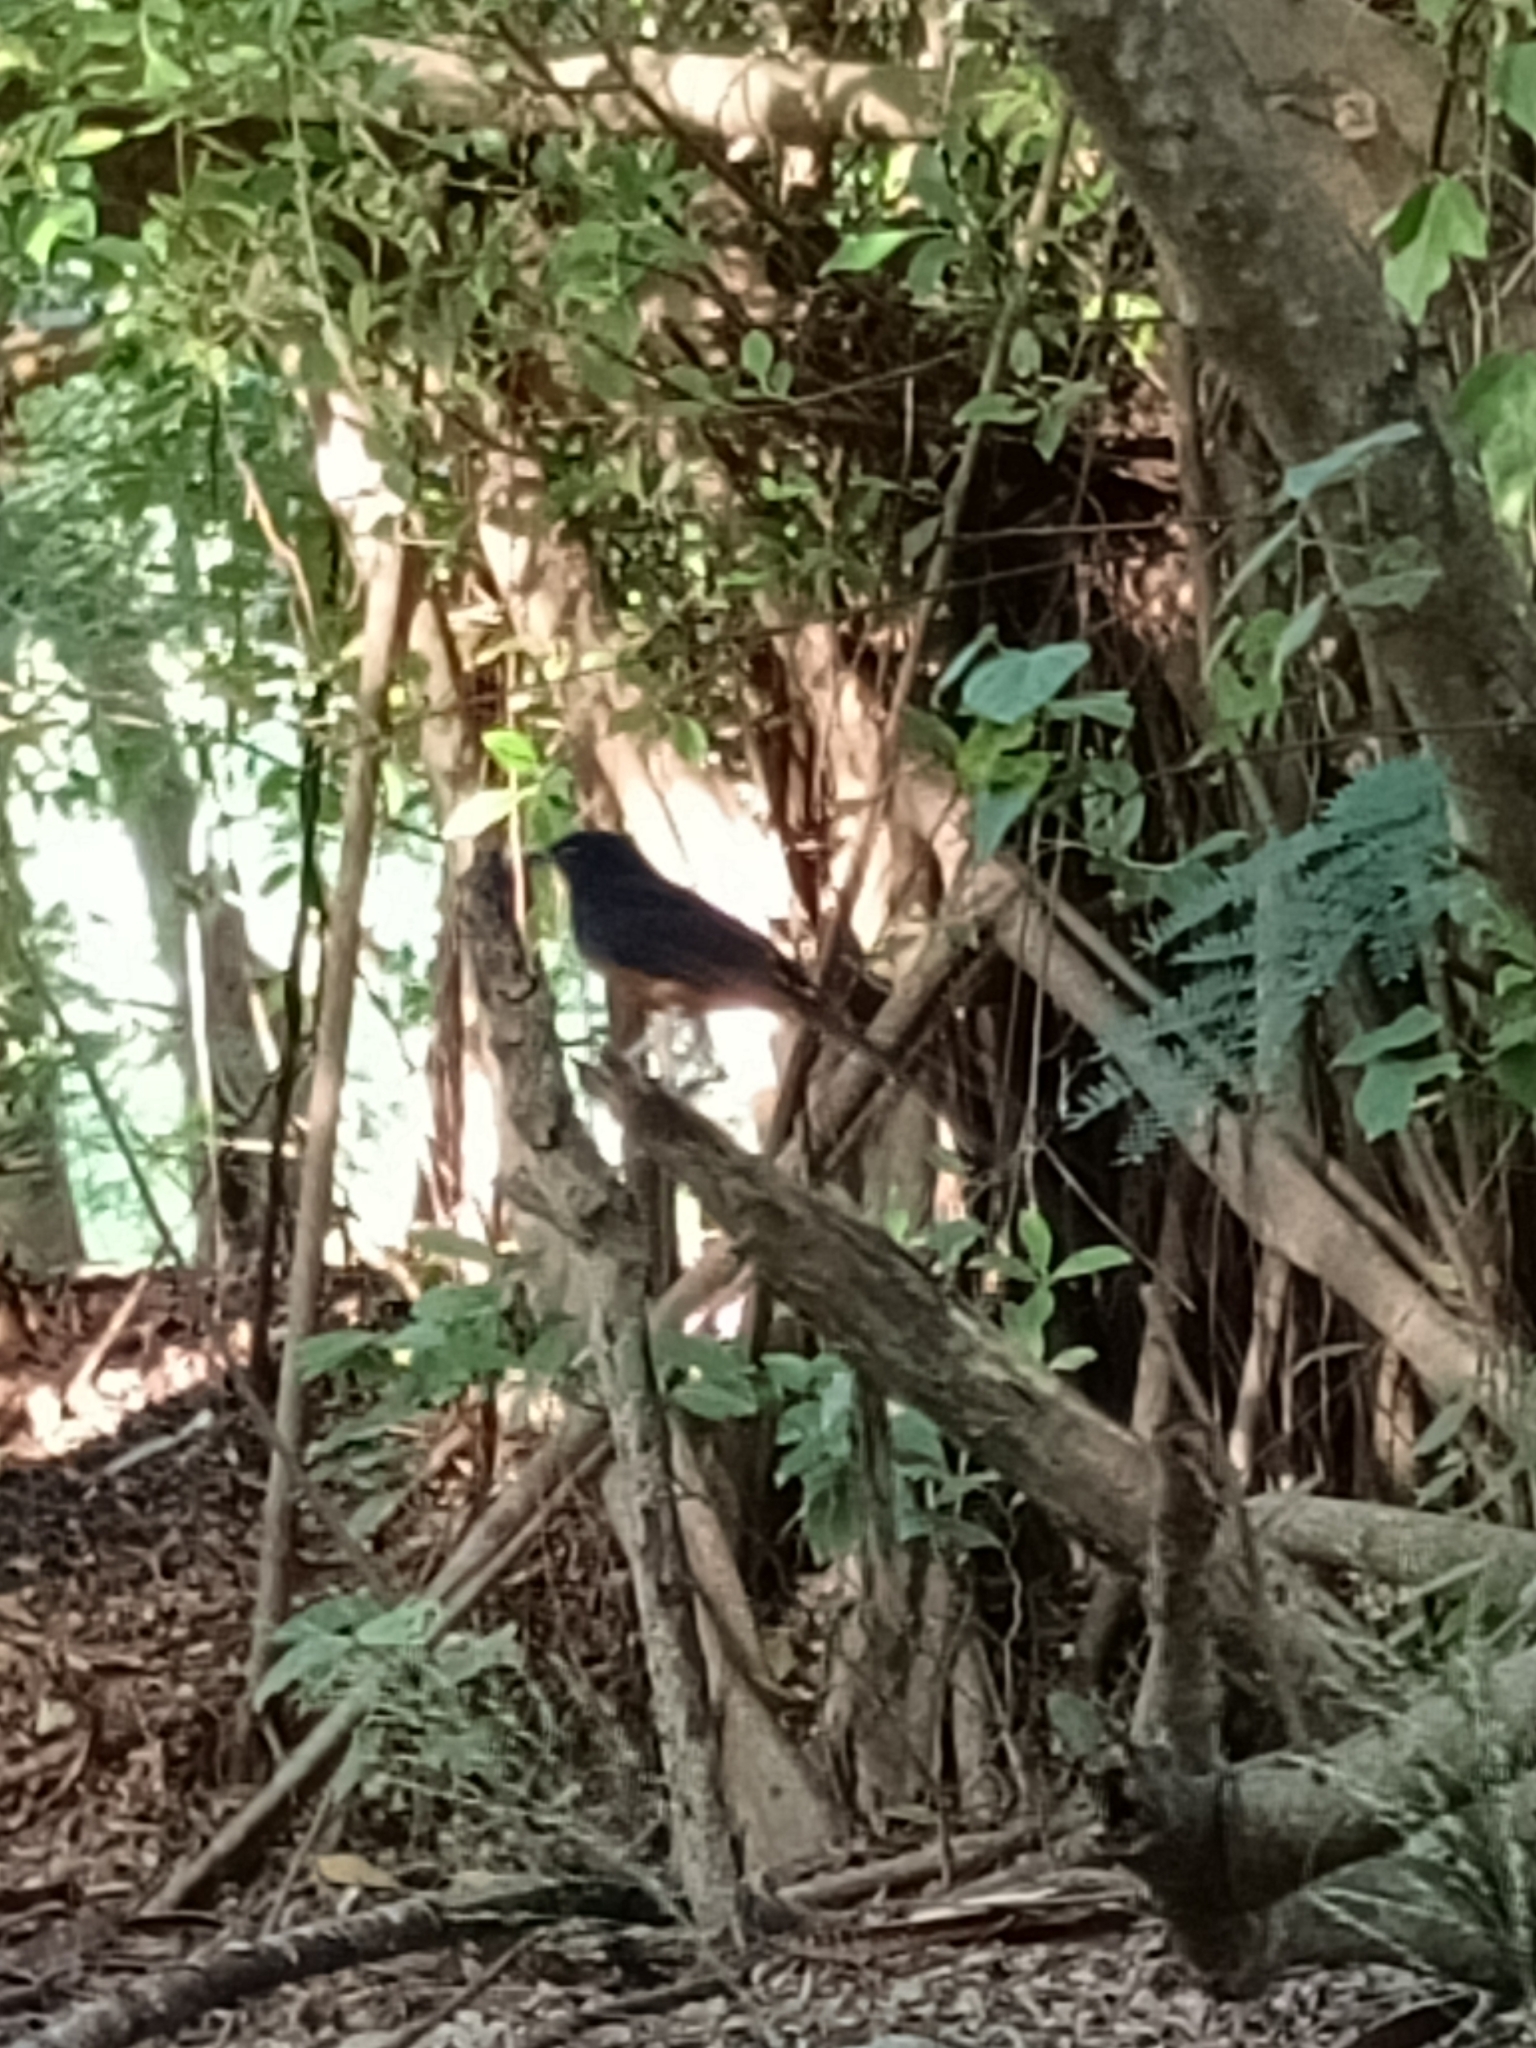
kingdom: Animalia
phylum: Chordata
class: Aves
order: Passeriformes
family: Muscicapidae
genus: Copsychus
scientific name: Copsychus malabaricus
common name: White-rumped shama
